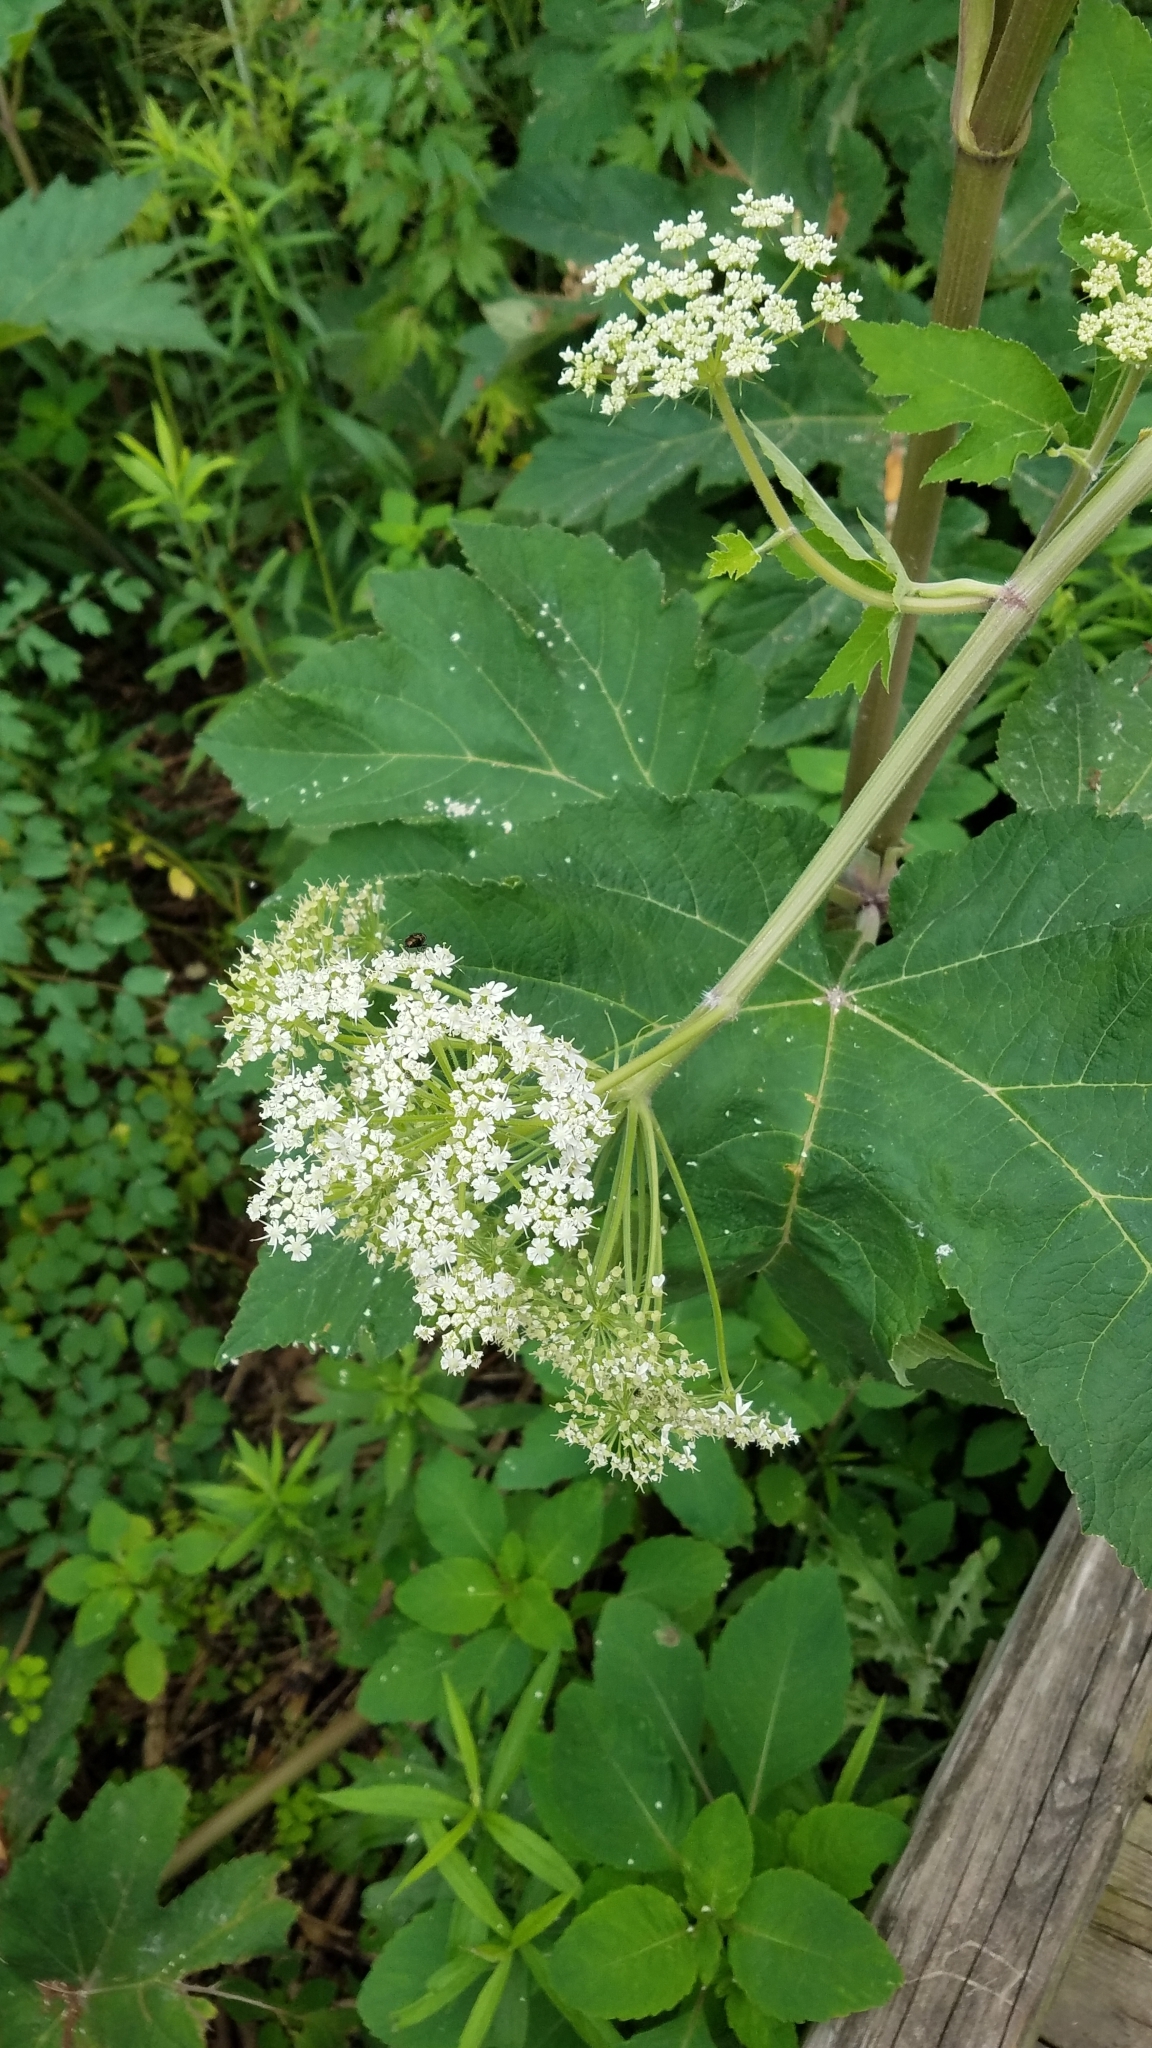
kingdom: Plantae
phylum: Tracheophyta
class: Magnoliopsida
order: Apiales
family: Apiaceae
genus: Heracleum
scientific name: Heracleum maximum
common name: American cow parsnip
